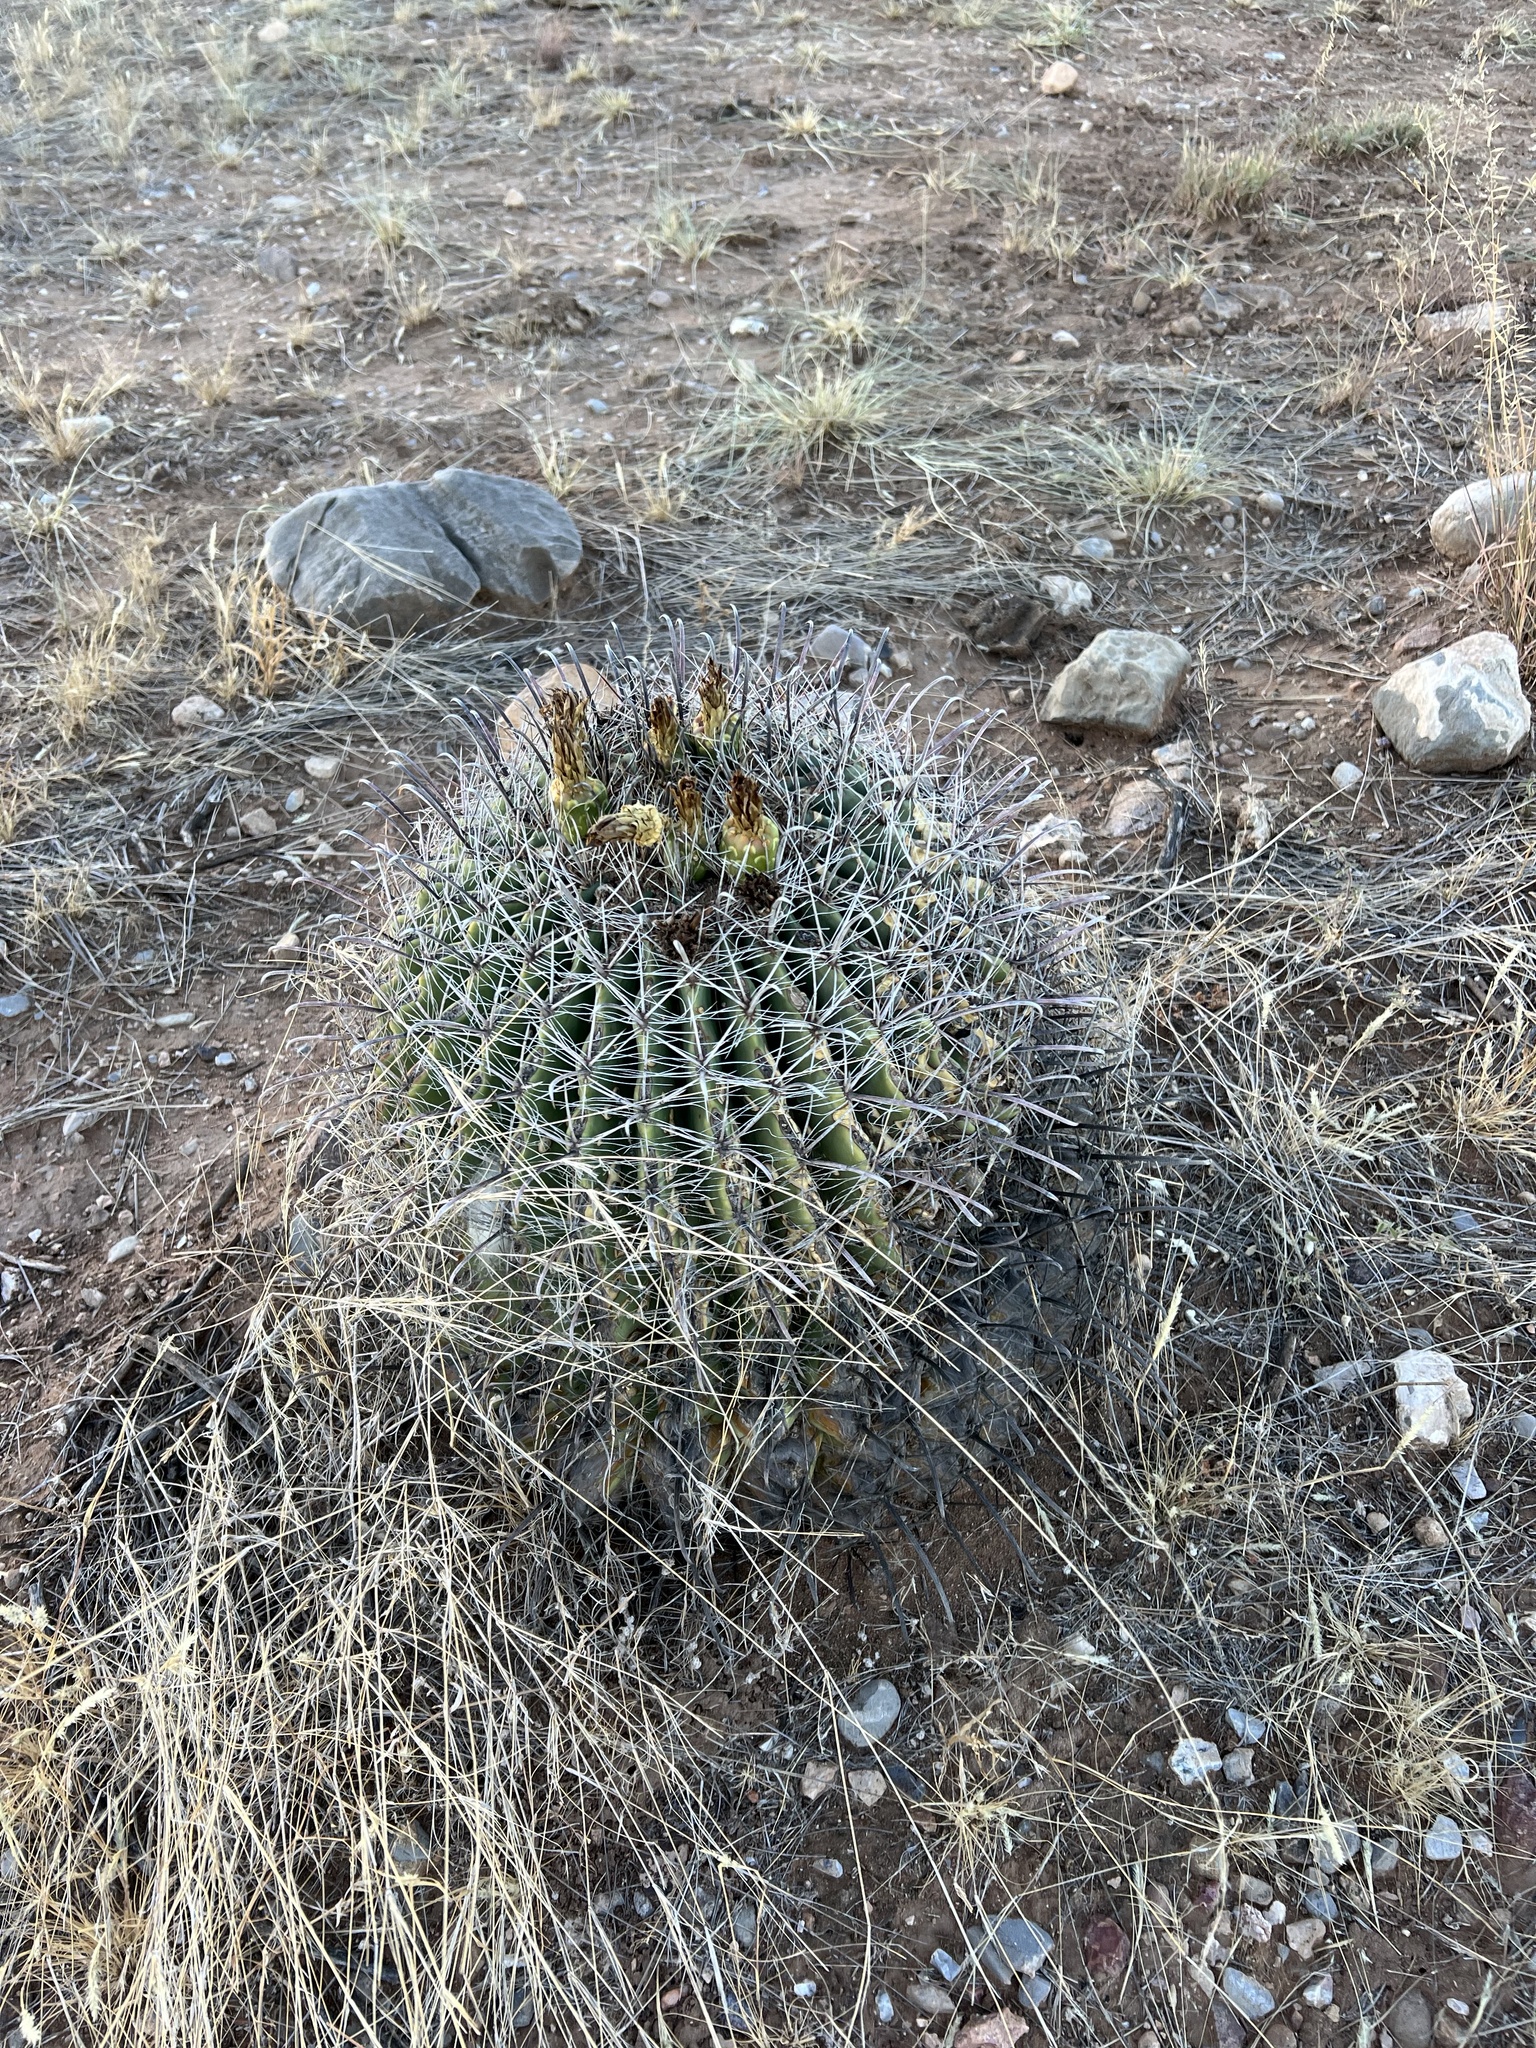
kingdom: Plantae
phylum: Tracheophyta
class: Magnoliopsida
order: Caryophyllales
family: Cactaceae
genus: Ferocactus
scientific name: Ferocactus wislizeni
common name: Candy barrel cactus
